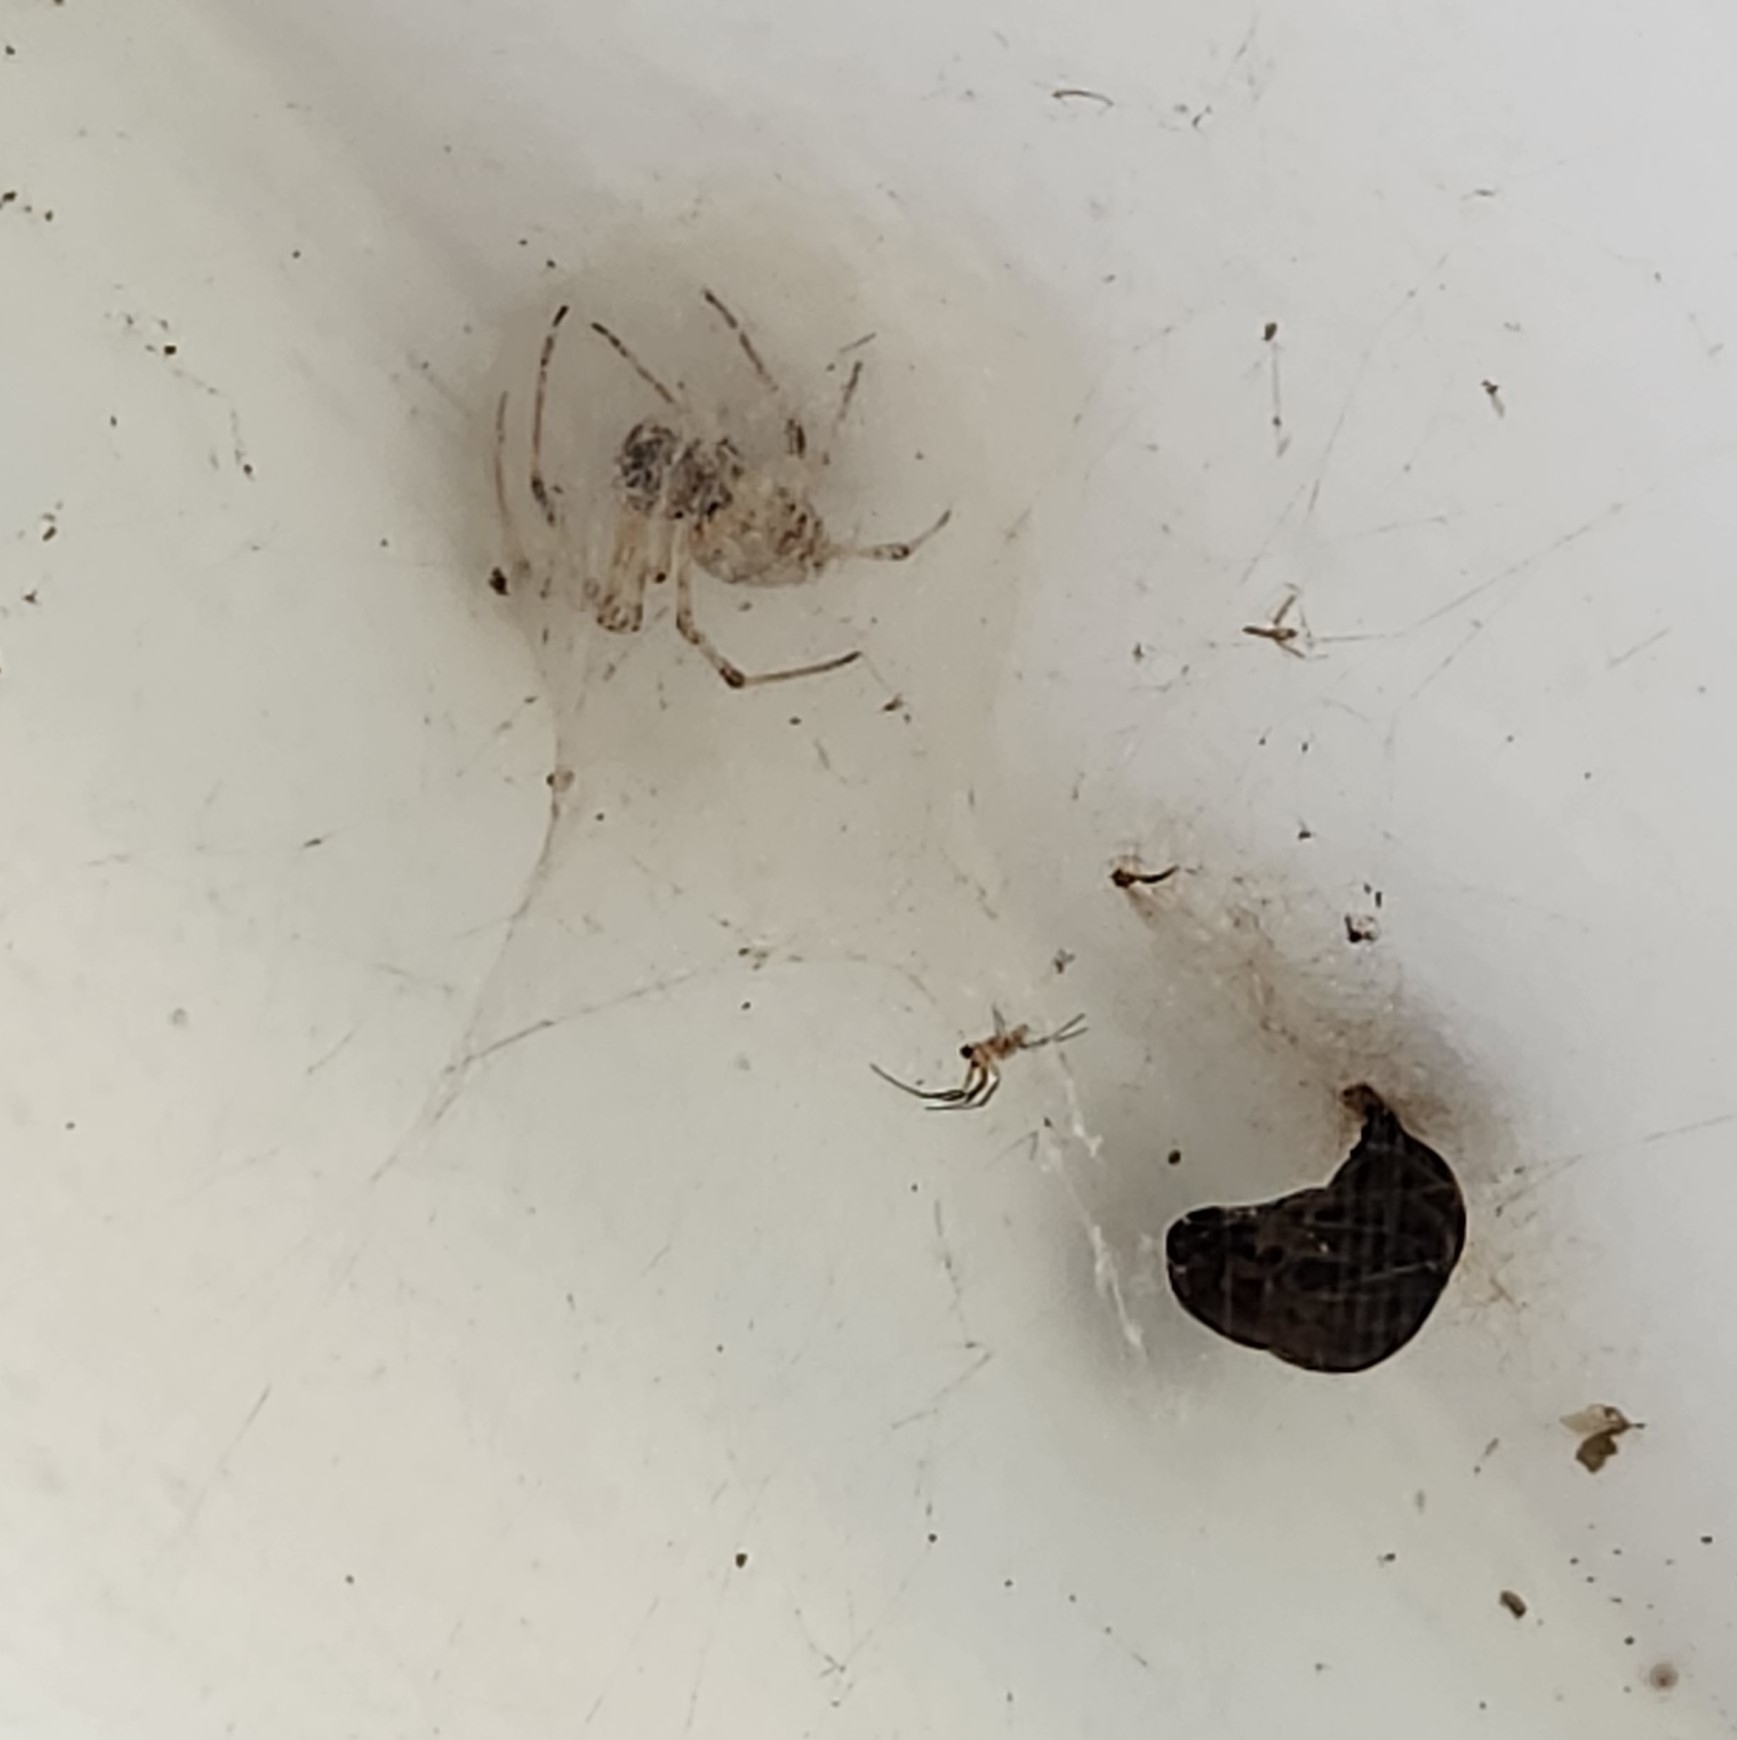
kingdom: Animalia
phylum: Arthropoda
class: Arachnida
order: Araneae
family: Araneidae
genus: Nephilingis
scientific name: Nephilingis cruentata
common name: African hermit spider
